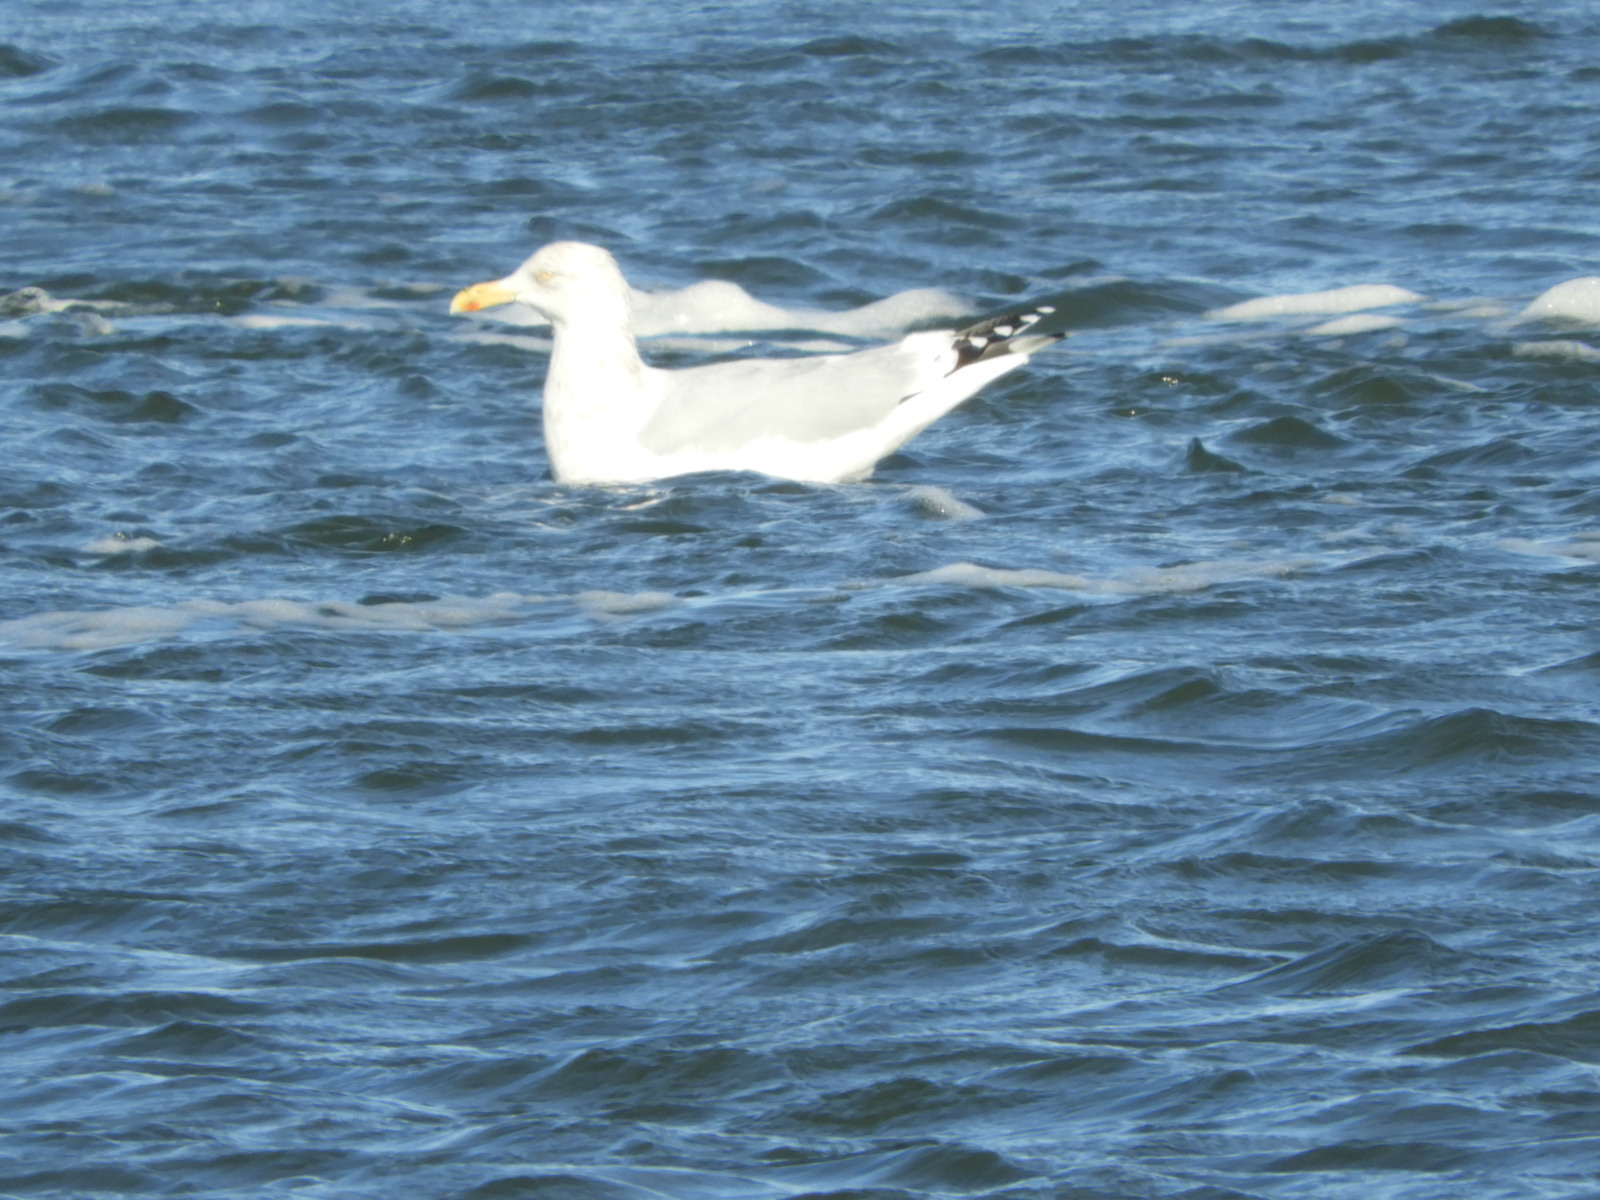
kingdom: Animalia
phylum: Chordata
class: Aves
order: Charadriiformes
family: Laridae
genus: Larus
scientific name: Larus argentatus
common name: Herring gull
